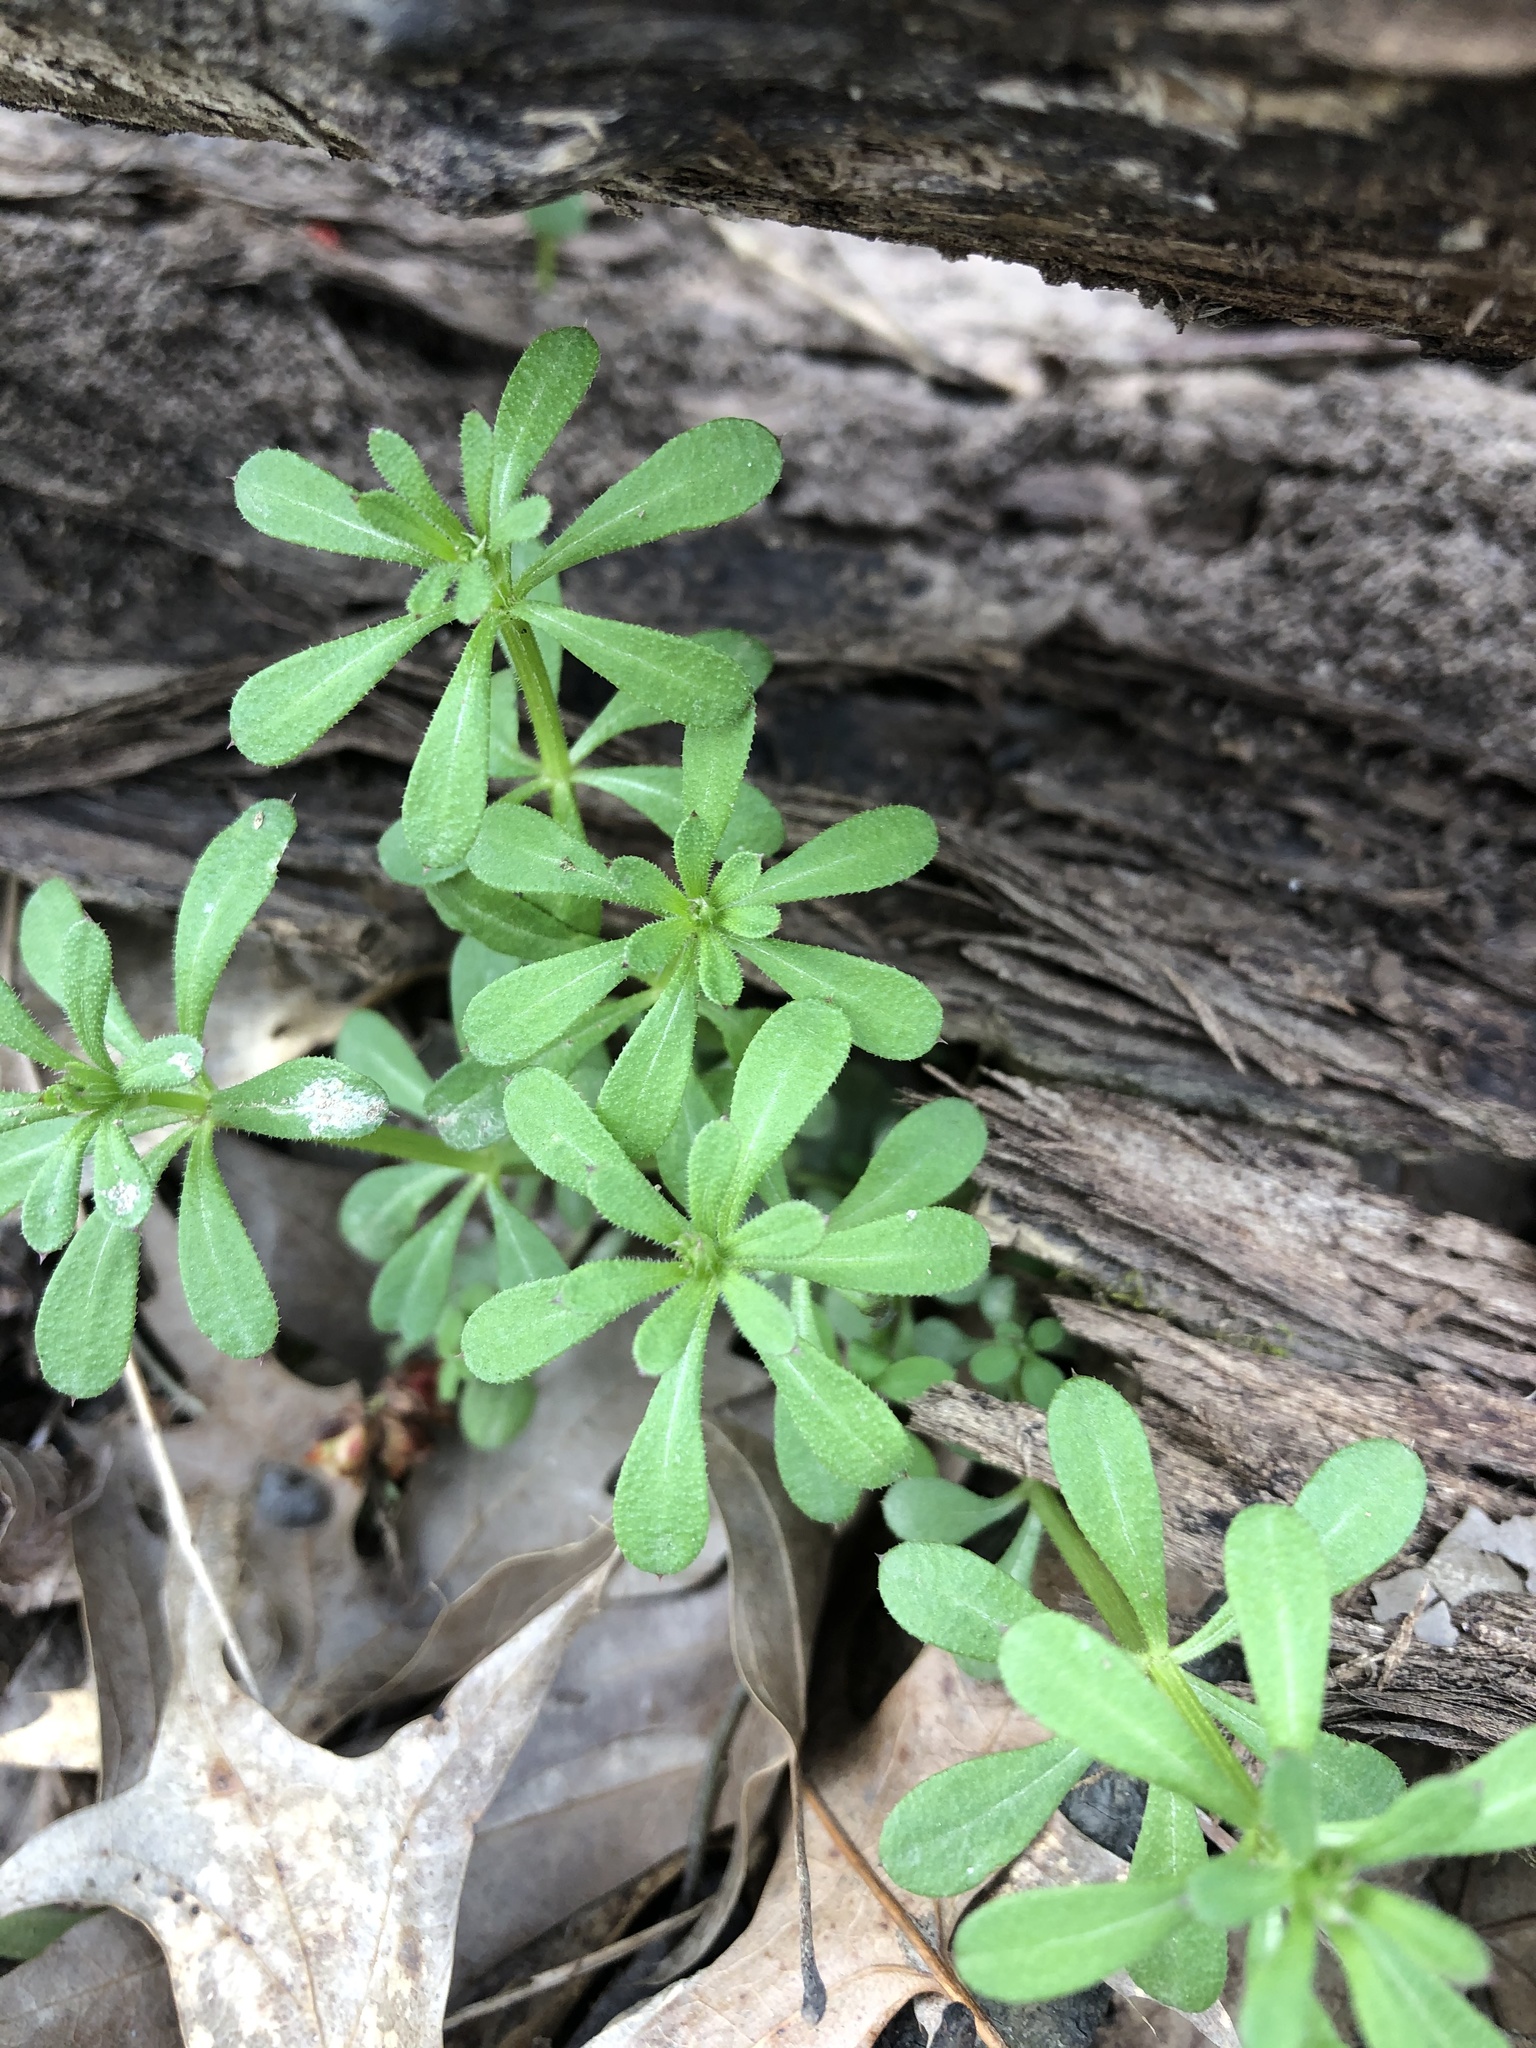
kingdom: Plantae
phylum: Tracheophyta
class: Magnoliopsida
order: Gentianales
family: Rubiaceae
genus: Galium
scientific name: Galium aparine
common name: Cleavers
